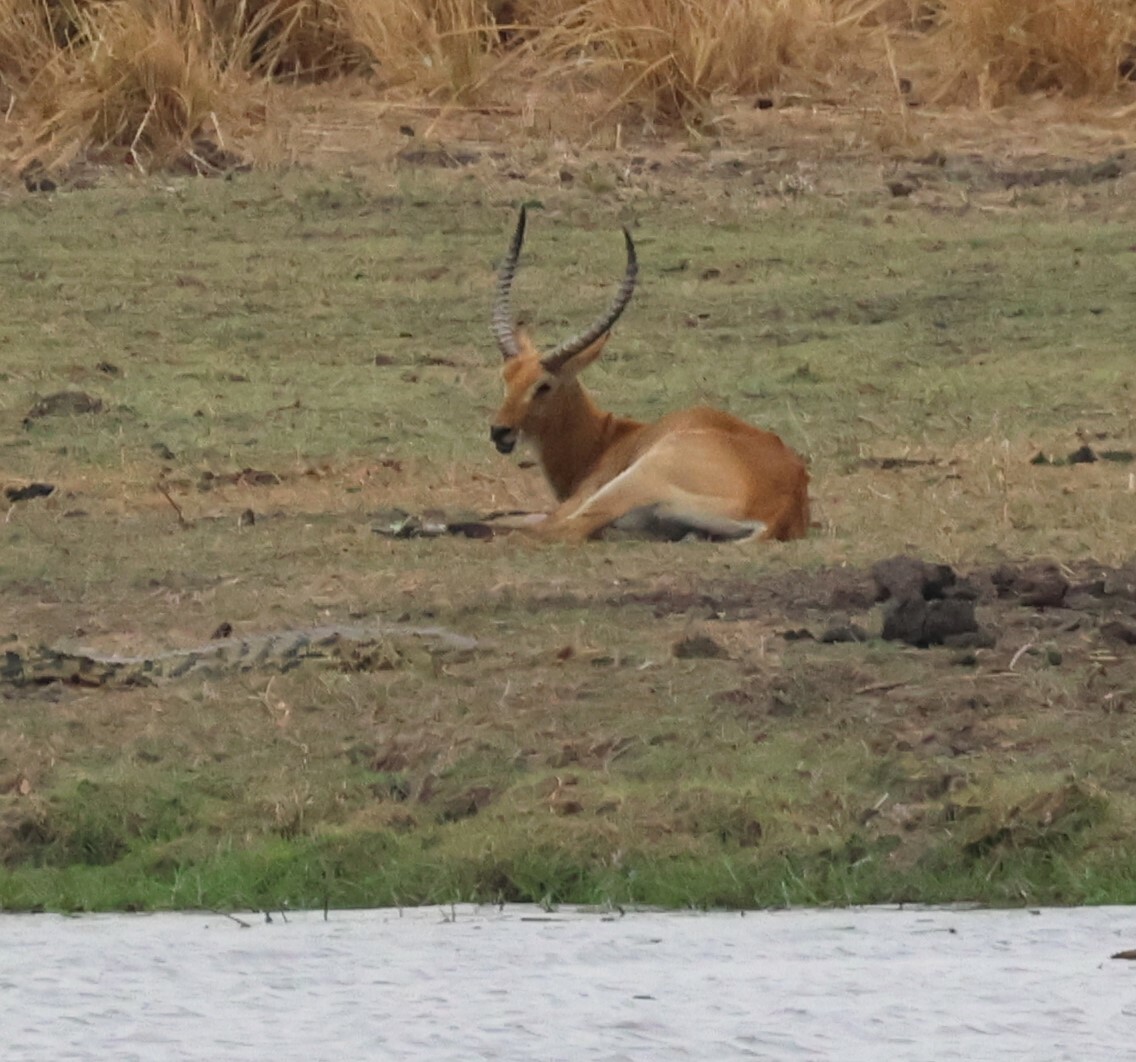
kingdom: Animalia
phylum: Chordata
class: Mammalia
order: Artiodactyla
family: Bovidae
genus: Kobus
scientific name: Kobus leche
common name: Lechwe
